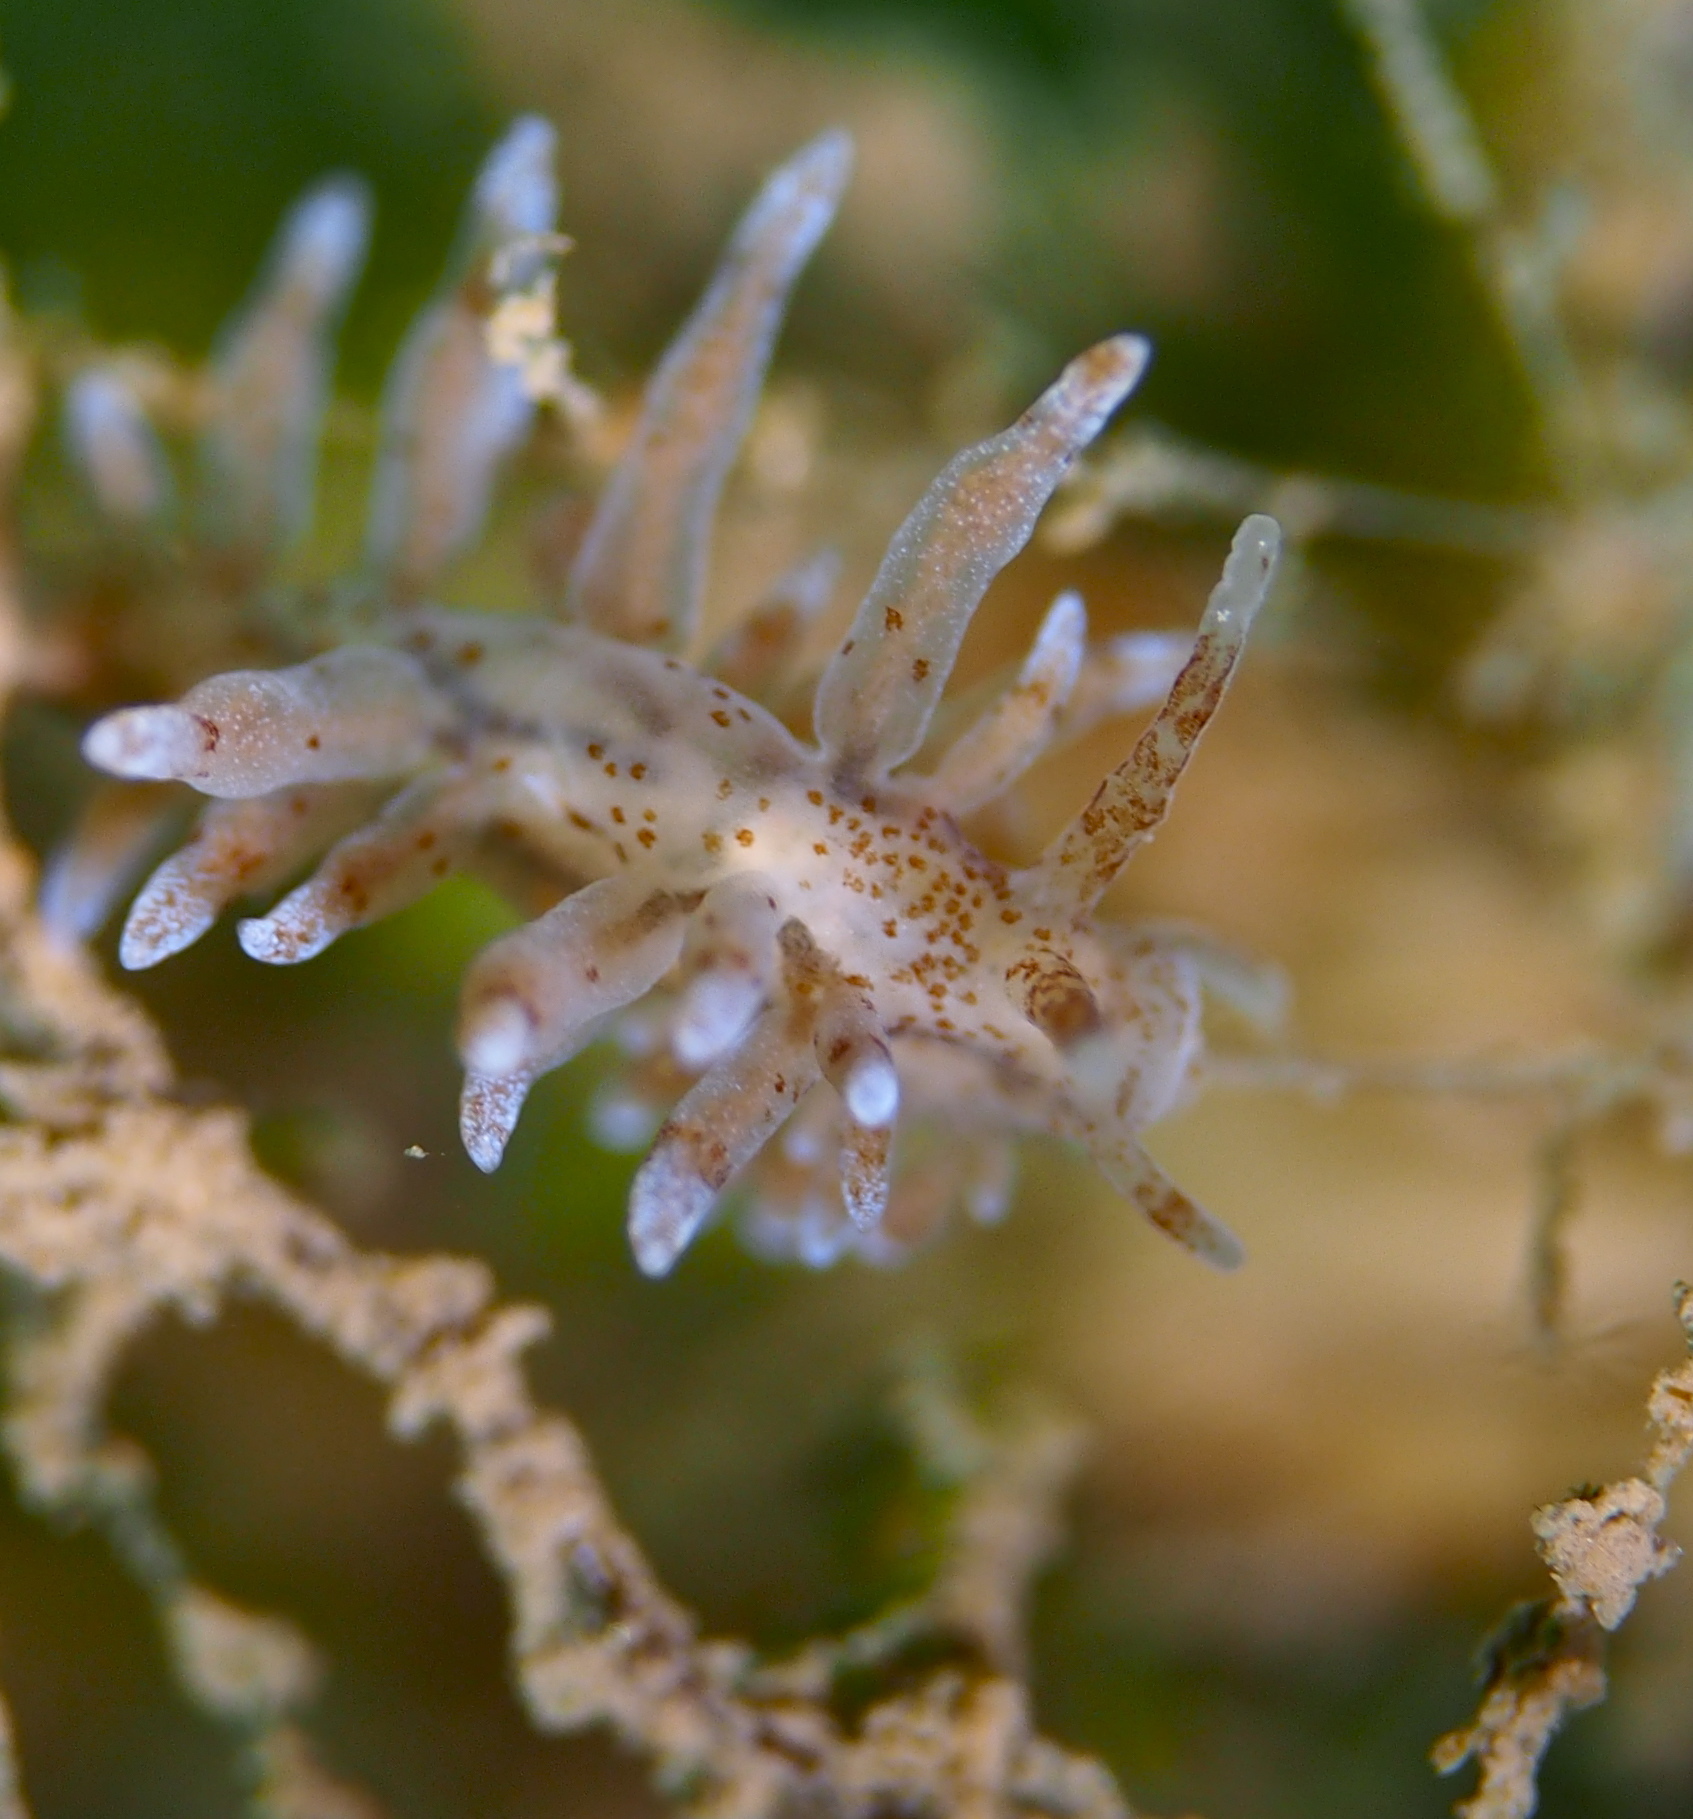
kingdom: Animalia
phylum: Mollusca
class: Gastropoda
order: Nudibranchia
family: Eubranchidae
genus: Eubranchus
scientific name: Eubranchus rupium
